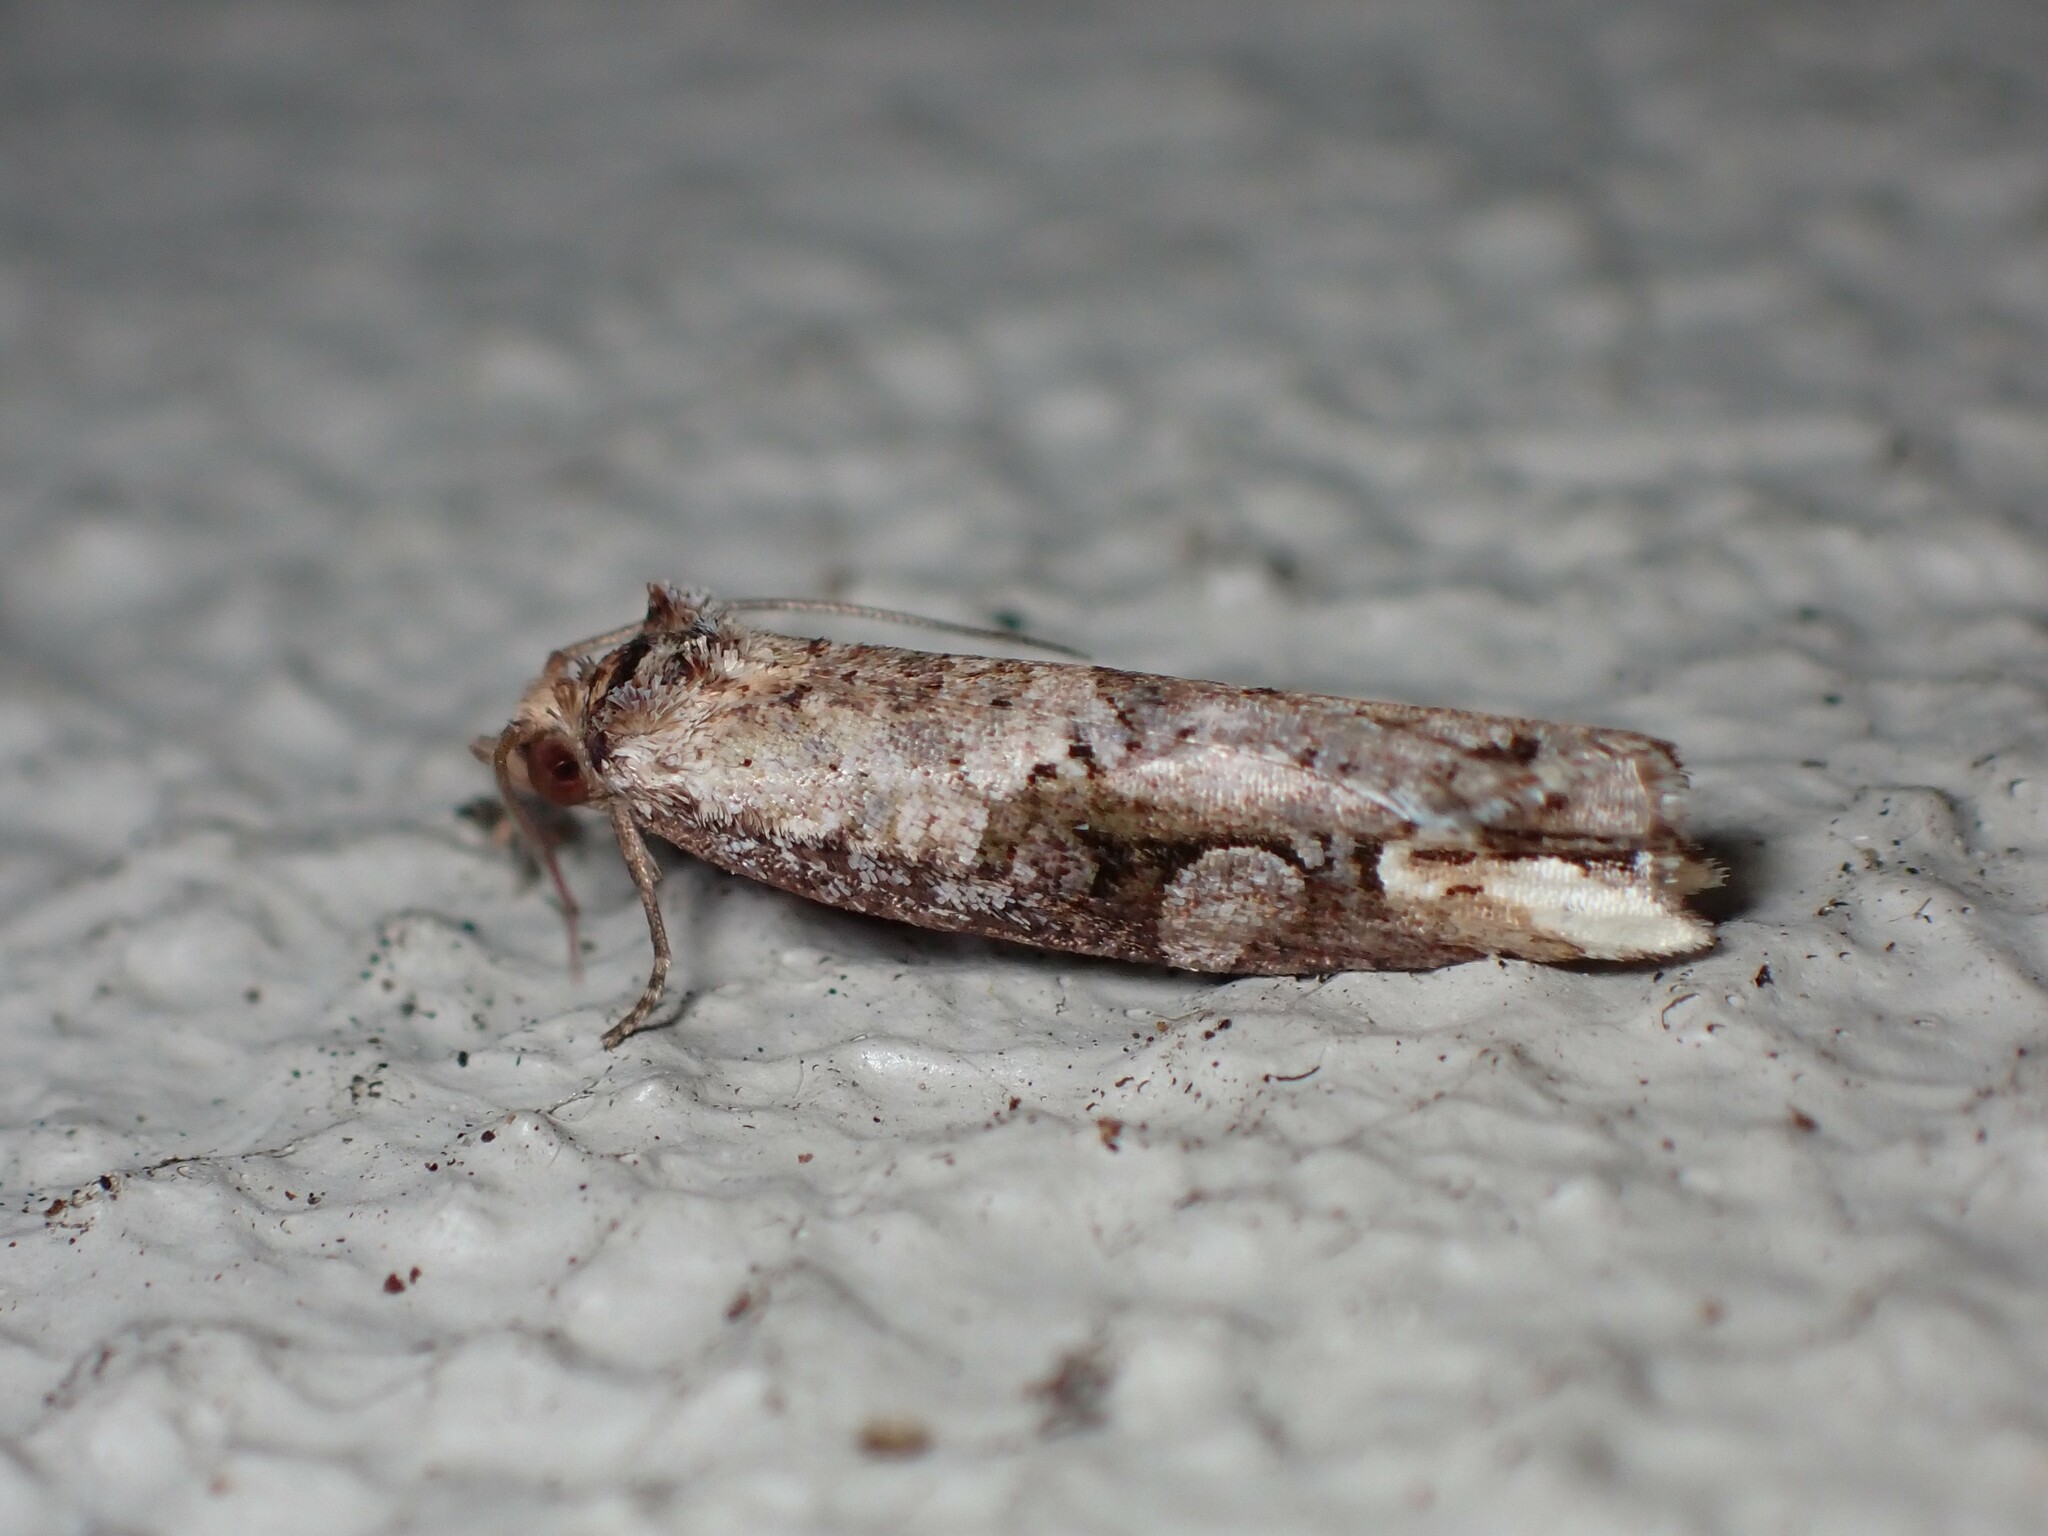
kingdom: Animalia
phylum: Arthropoda
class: Insecta
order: Lepidoptera
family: Tortricidae
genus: Epalxiphora
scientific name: Epalxiphora axenana
